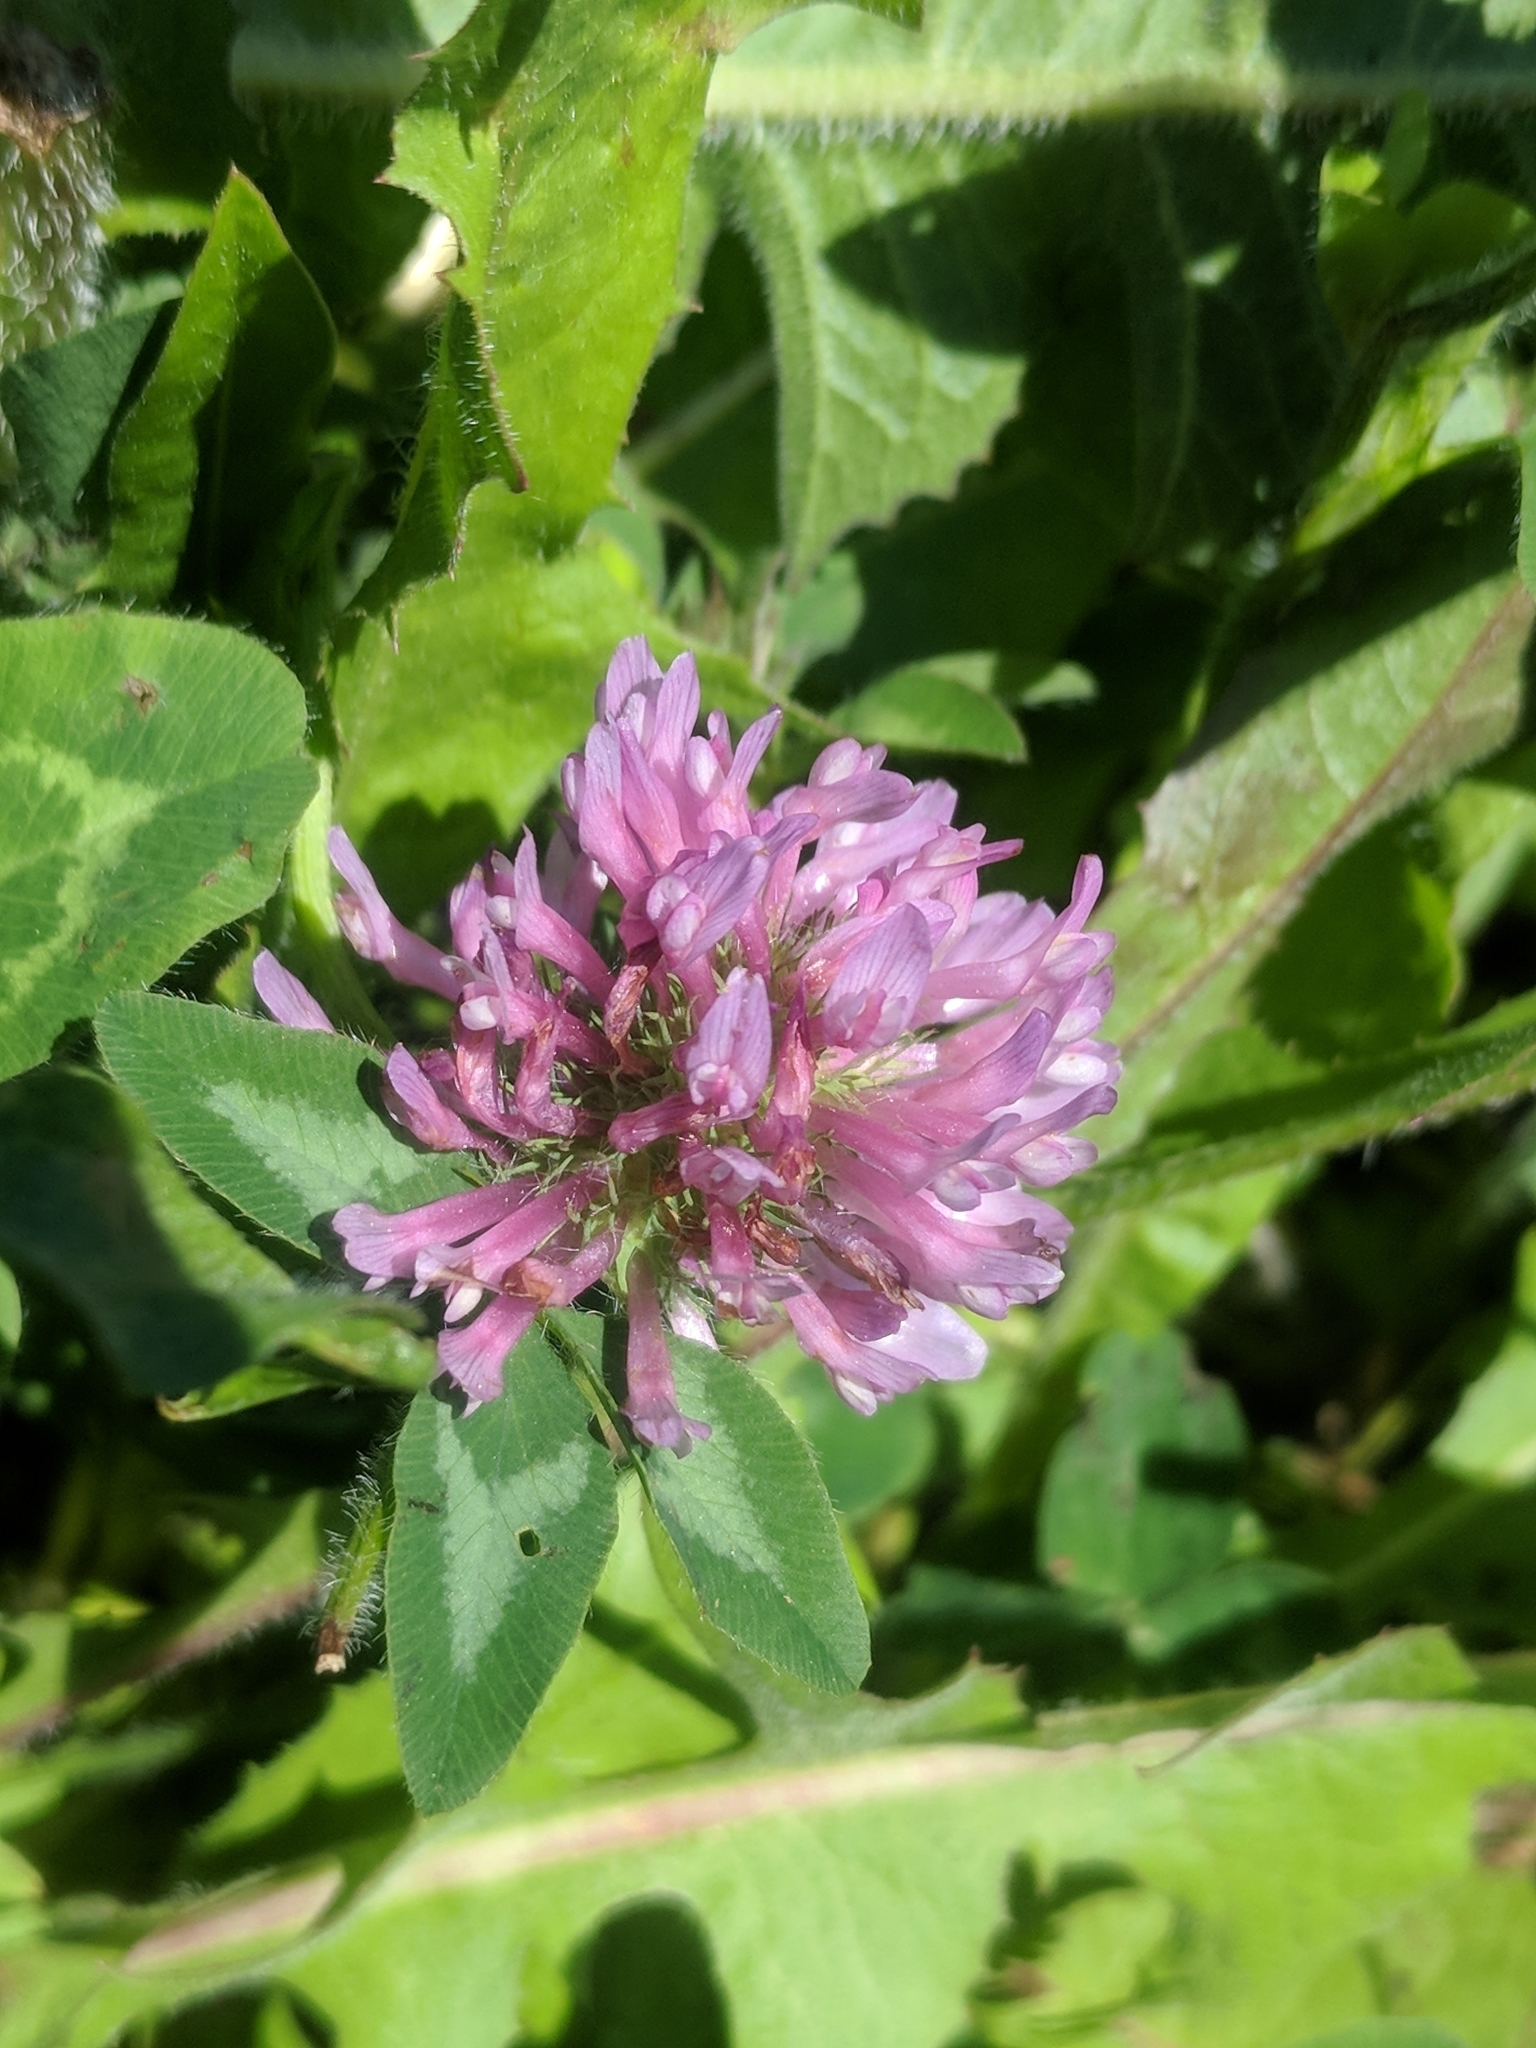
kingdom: Plantae
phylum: Tracheophyta
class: Magnoliopsida
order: Fabales
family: Fabaceae
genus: Trifolium
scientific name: Trifolium pratense
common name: Red clover
